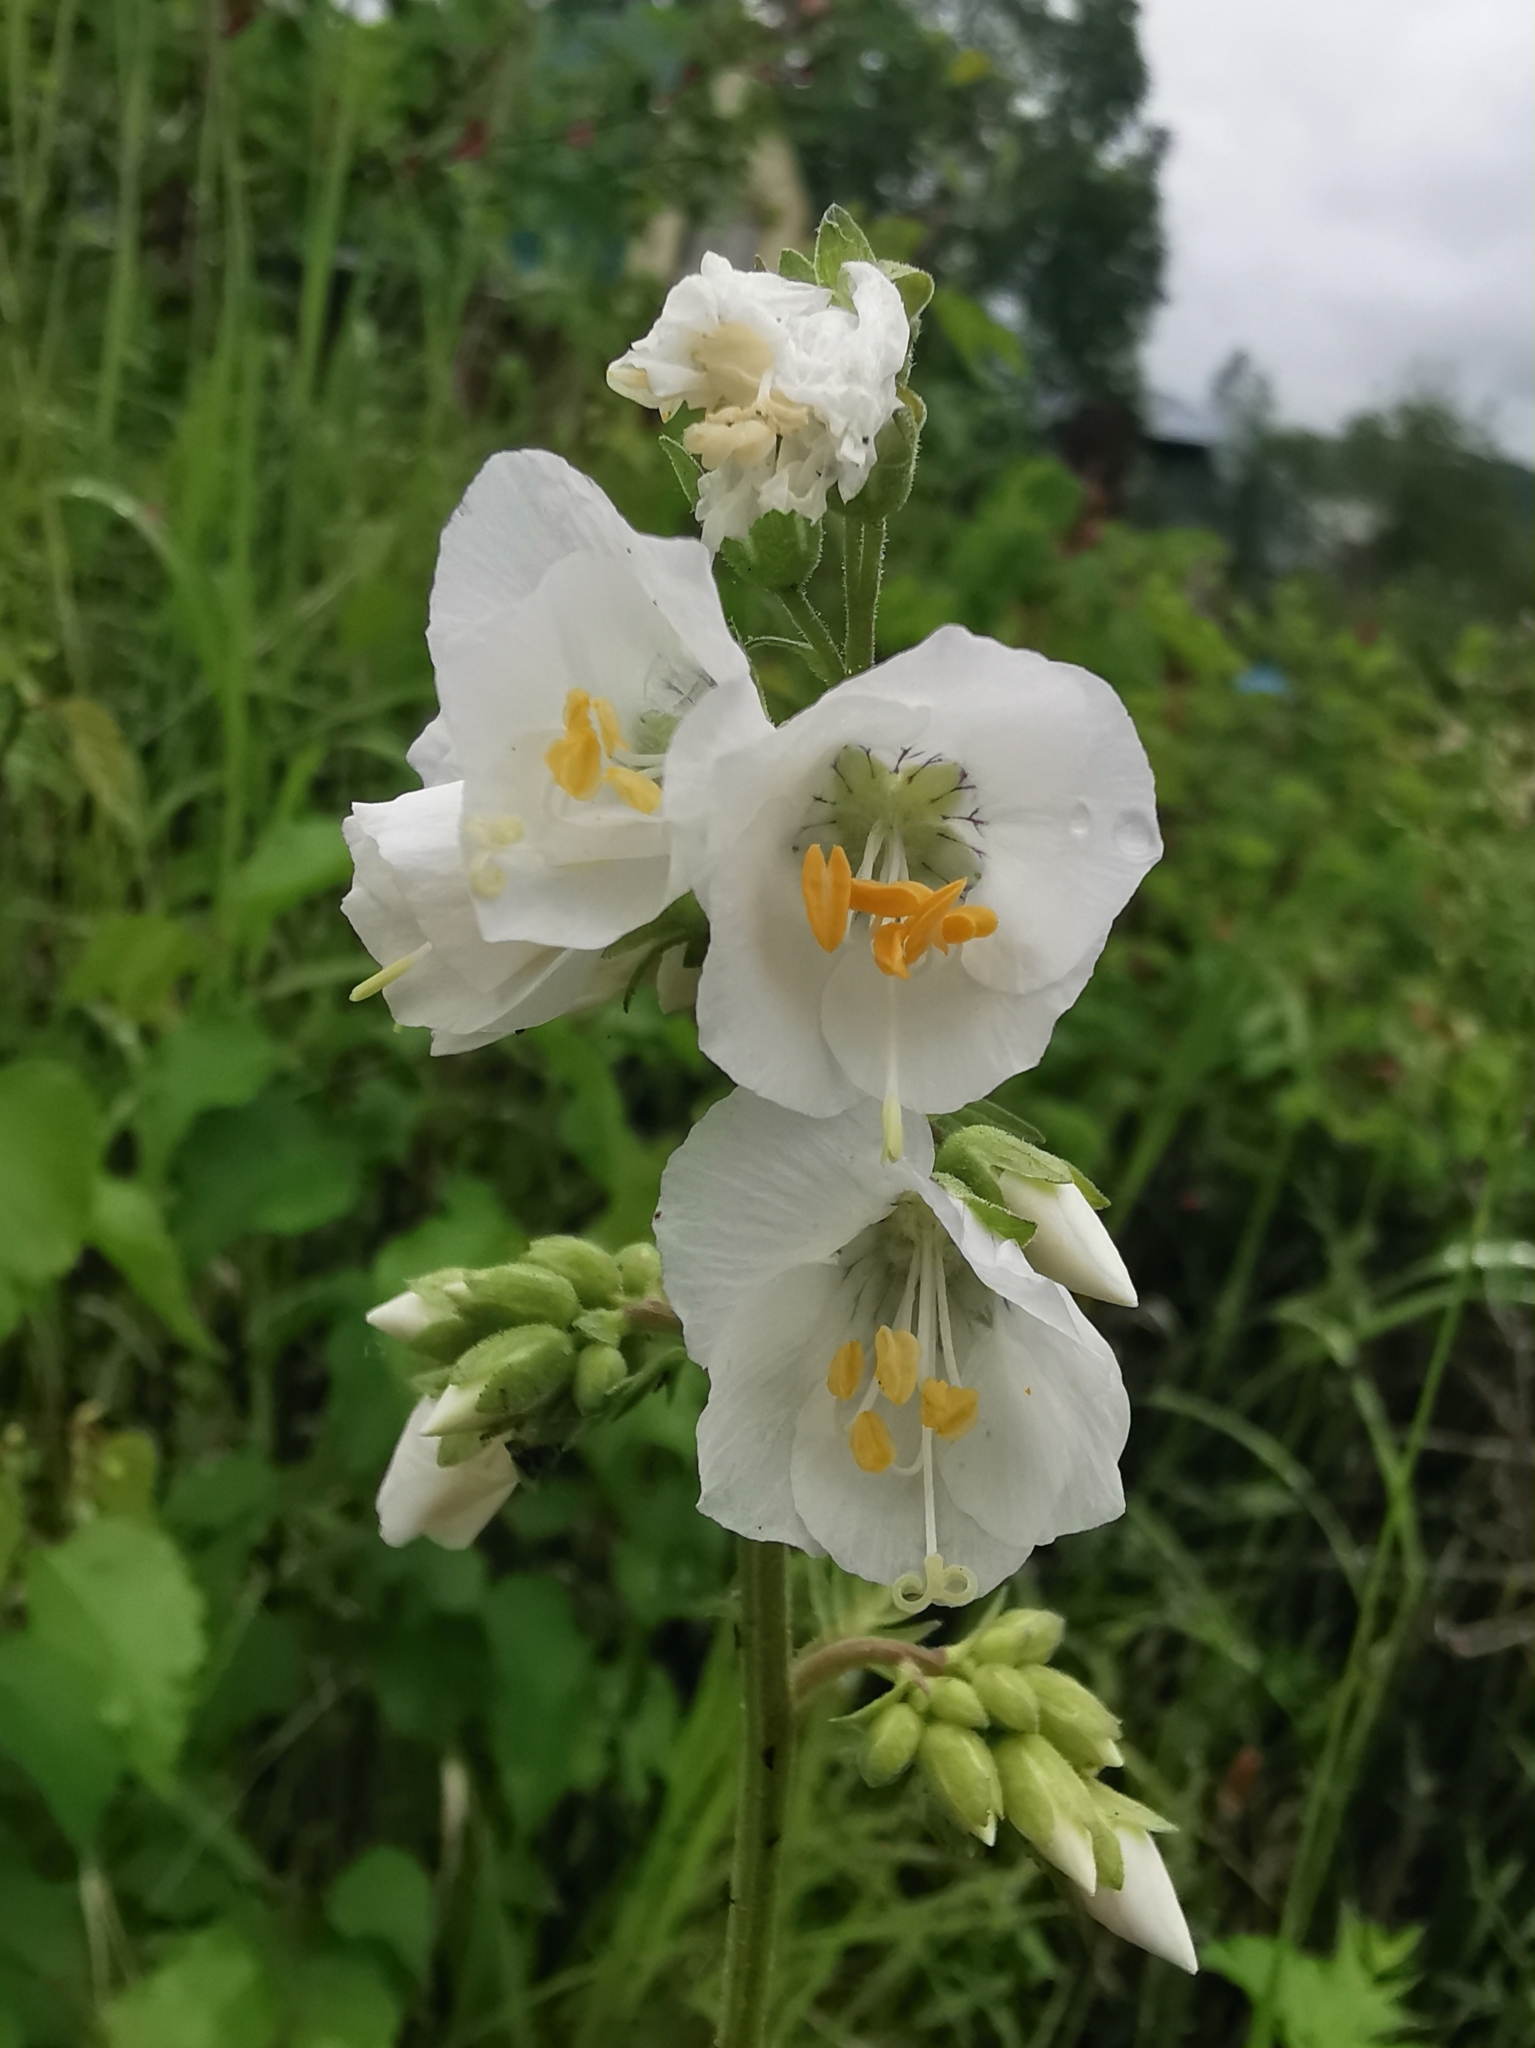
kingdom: Plantae
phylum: Tracheophyta
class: Magnoliopsida
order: Ericales
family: Polemoniaceae
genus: Polemonium
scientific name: Polemonium caeruleum
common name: Jacob's-ladder
